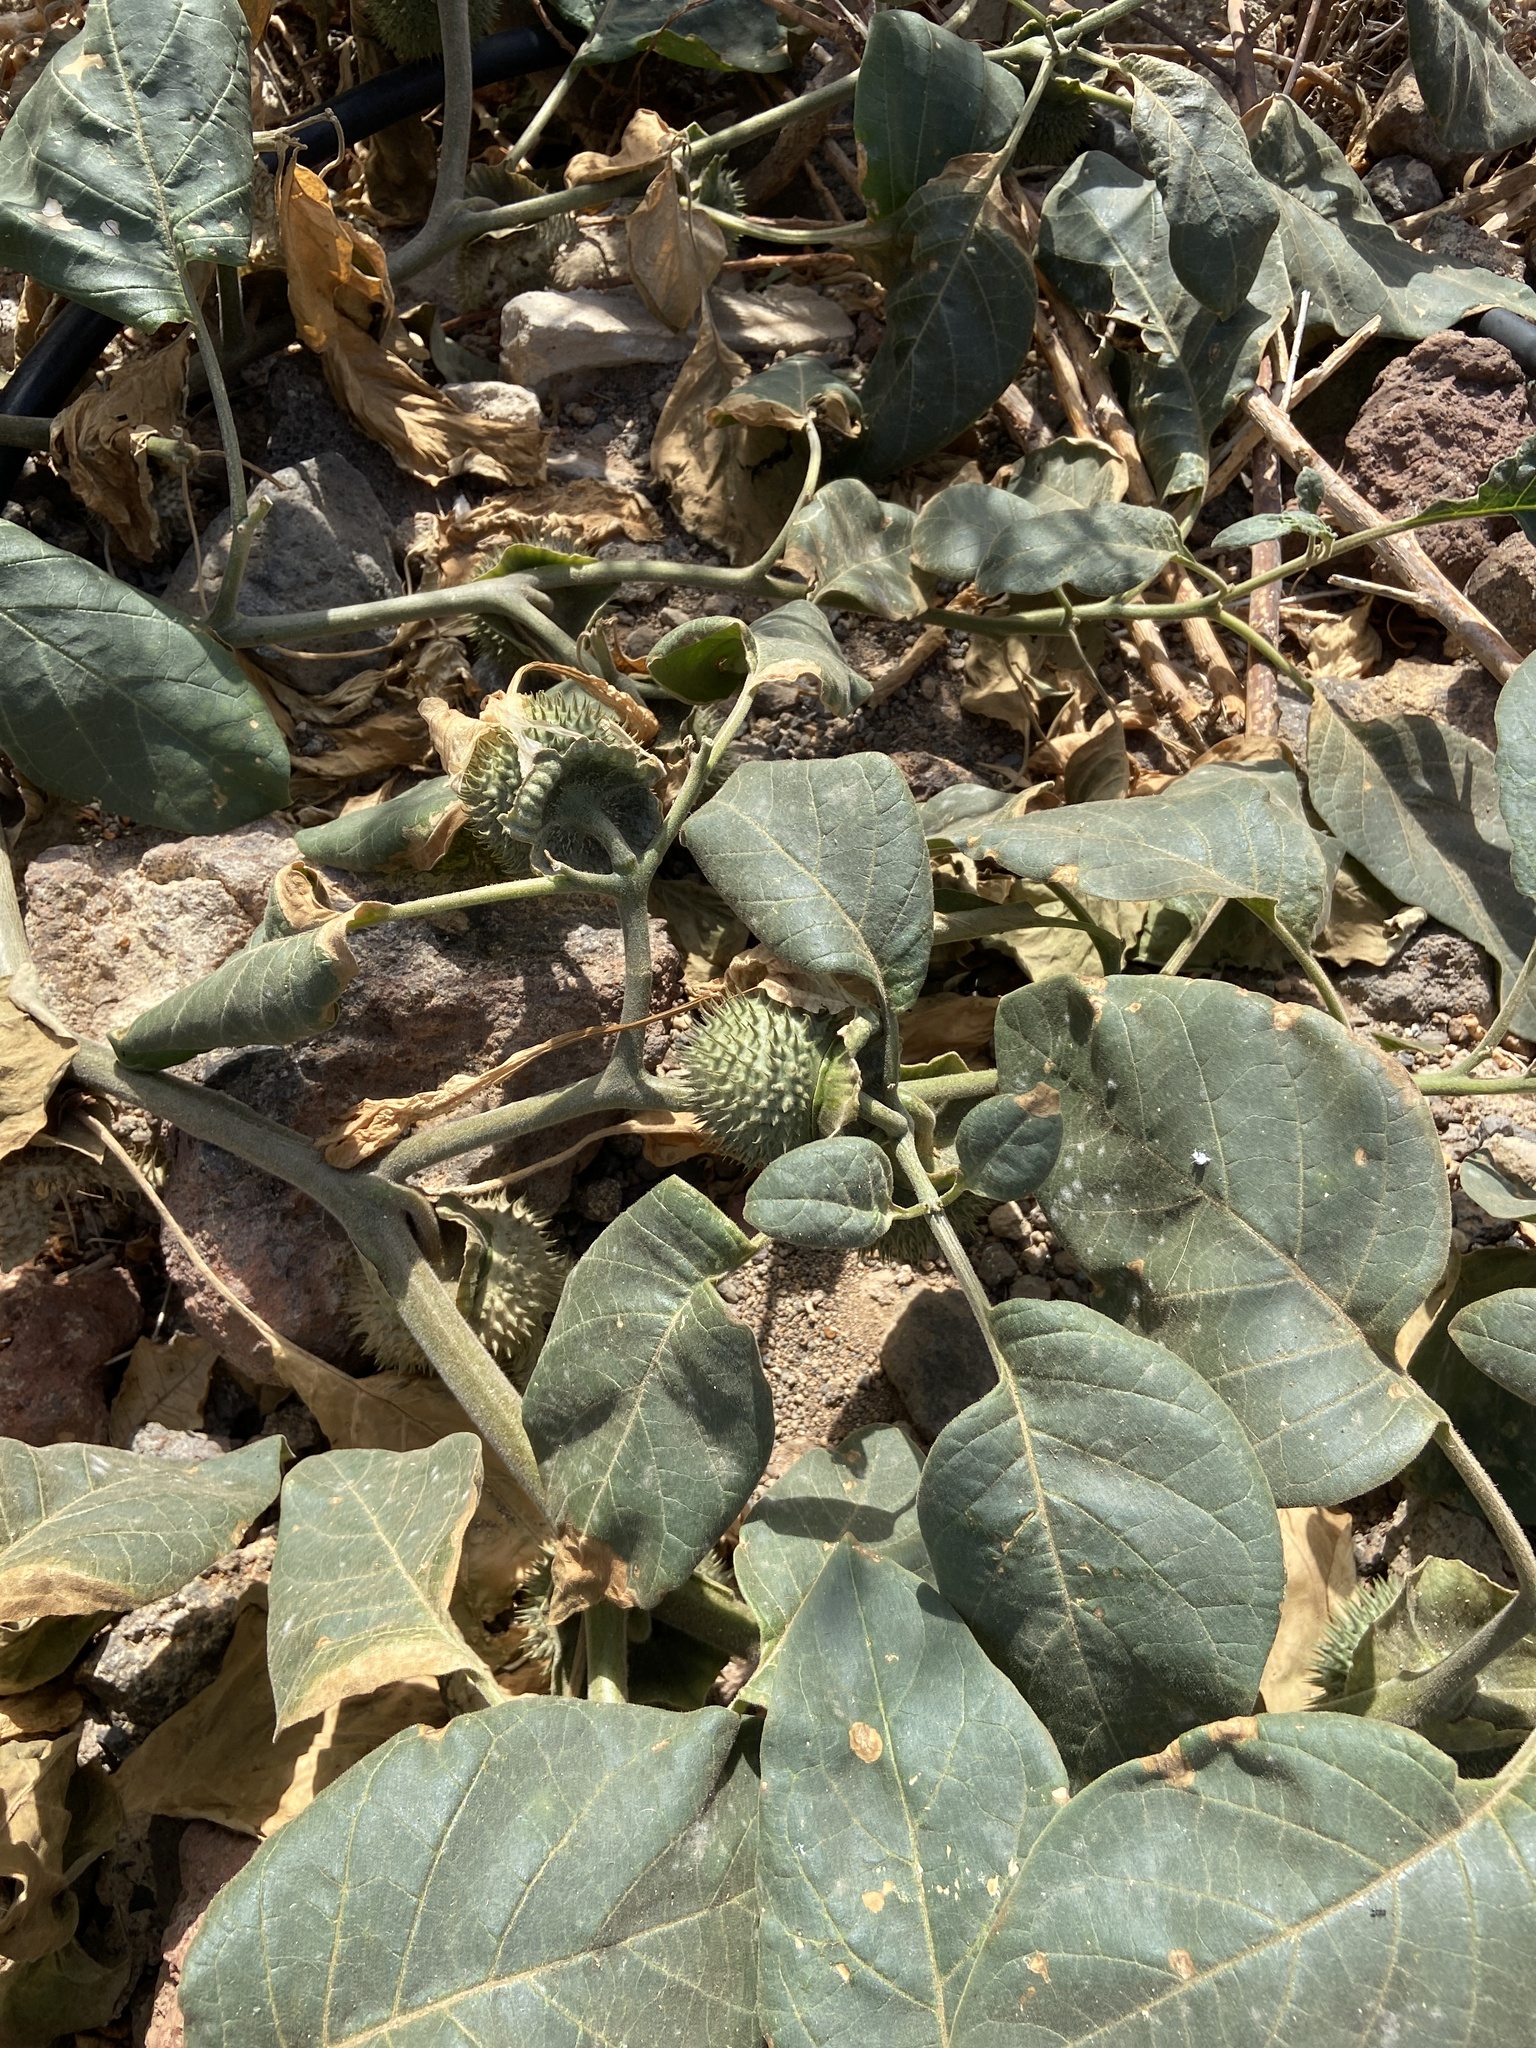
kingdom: Plantae
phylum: Tracheophyta
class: Magnoliopsida
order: Solanales
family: Solanaceae
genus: Datura
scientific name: Datura innoxia
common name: Downy thorn-apple
